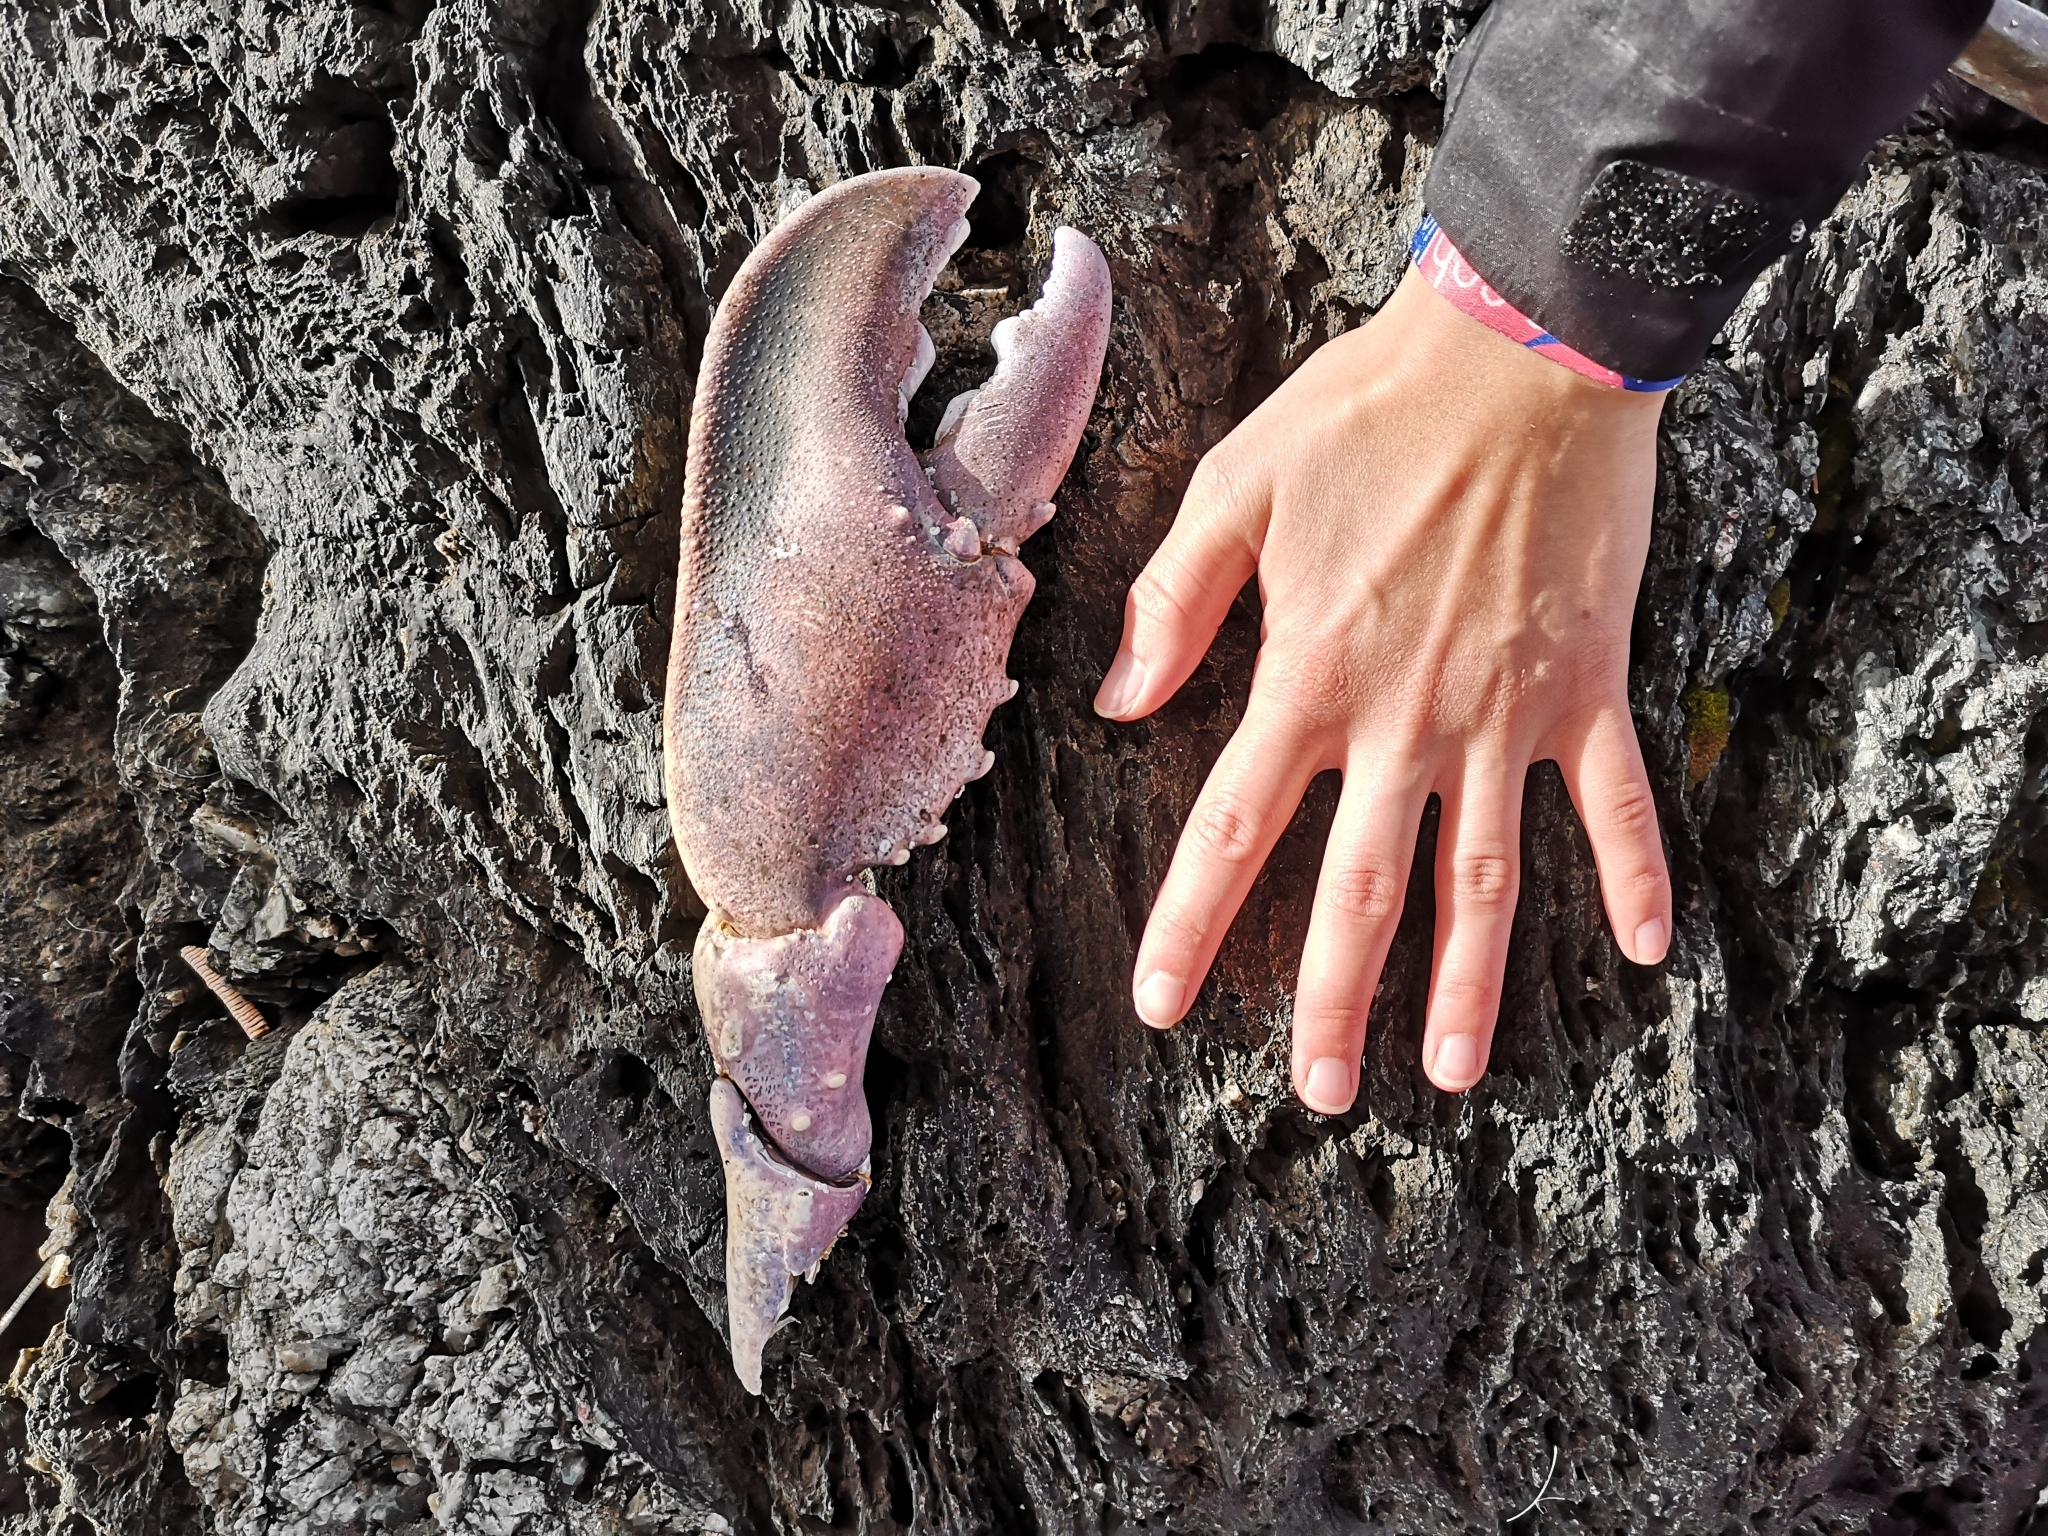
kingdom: Animalia
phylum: Arthropoda
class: Malacostraca
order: Decapoda
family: Nephropidae
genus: Homarus
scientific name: Homarus gammarus
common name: European lobster
